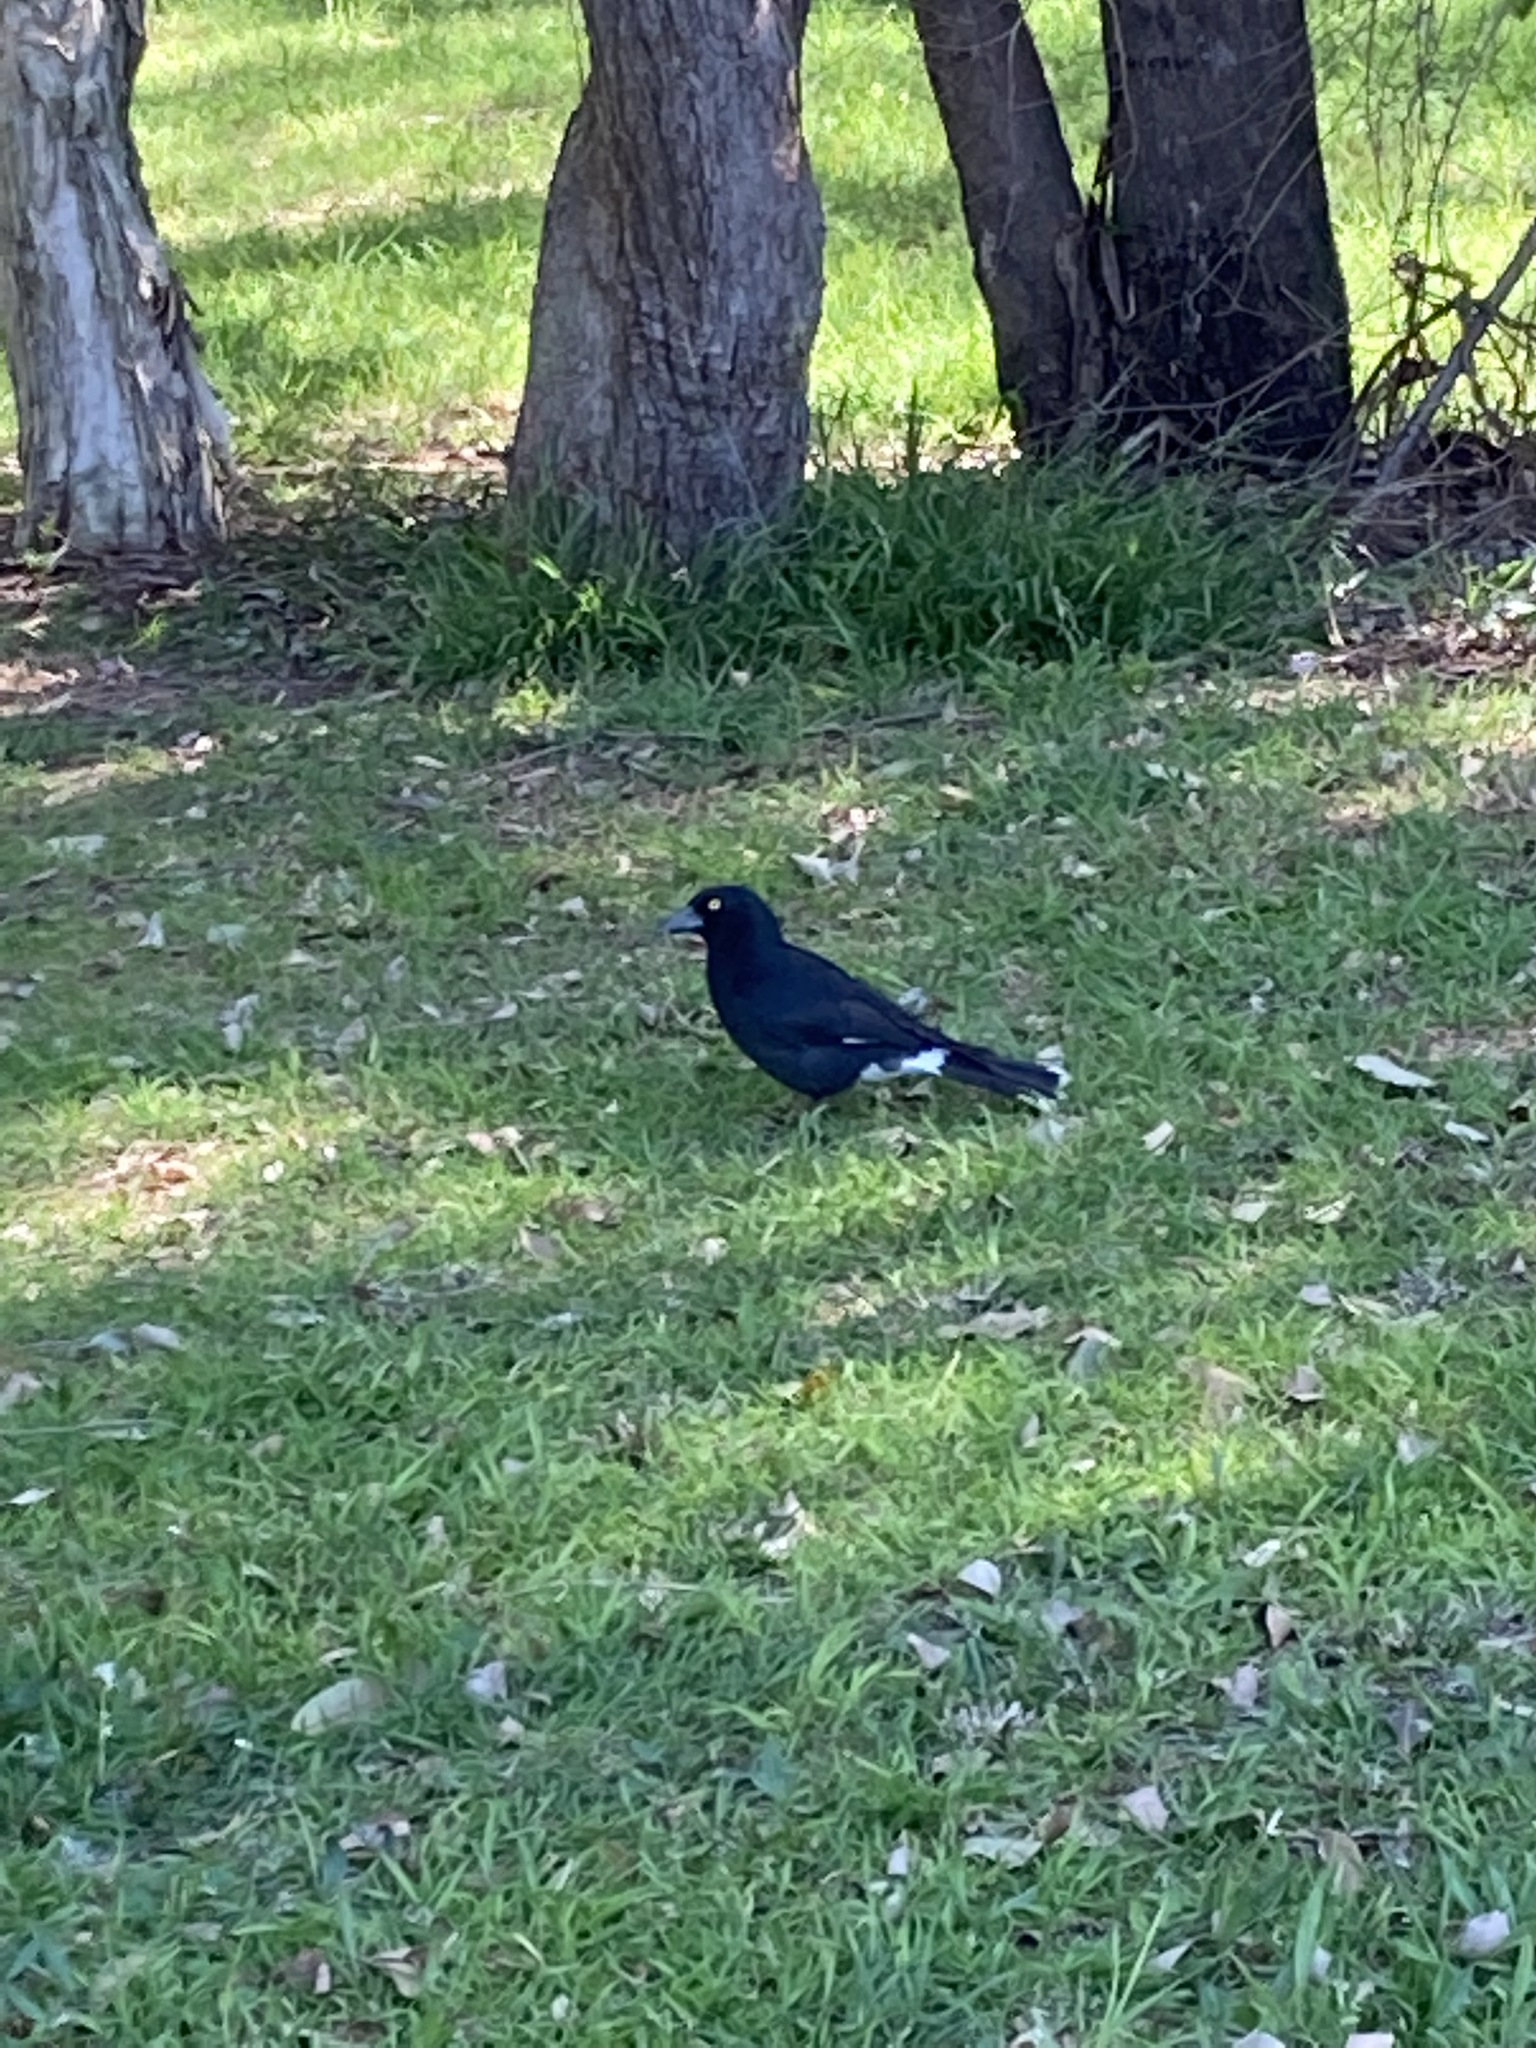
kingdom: Animalia
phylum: Chordata
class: Aves
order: Passeriformes
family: Cracticidae
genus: Strepera
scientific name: Strepera graculina
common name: Pied currawong
